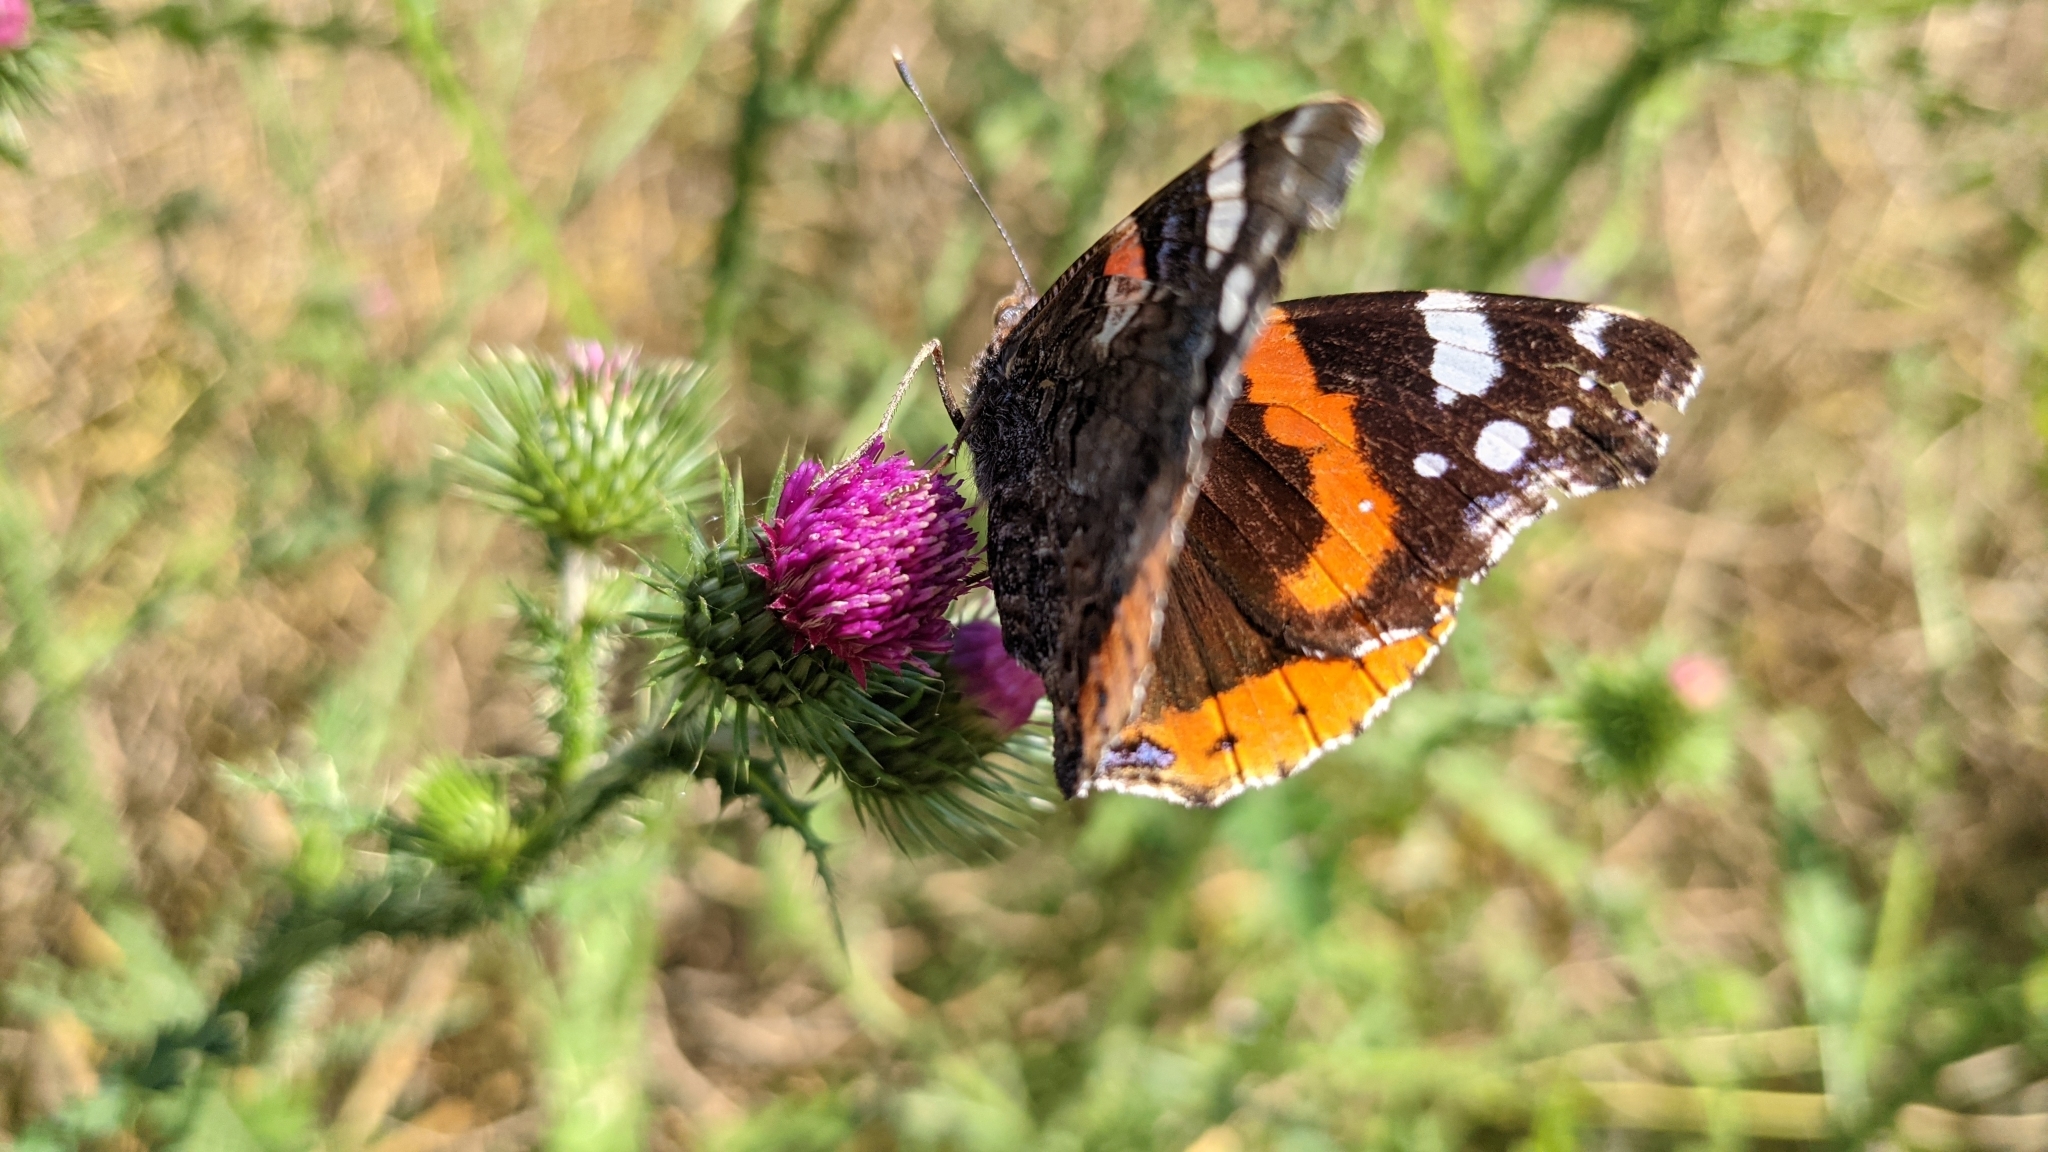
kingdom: Animalia
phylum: Arthropoda
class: Insecta
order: Lepidoptera
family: Nymphalidae
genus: Vanessa
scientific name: Vanessa atalanta
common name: Red admiral
